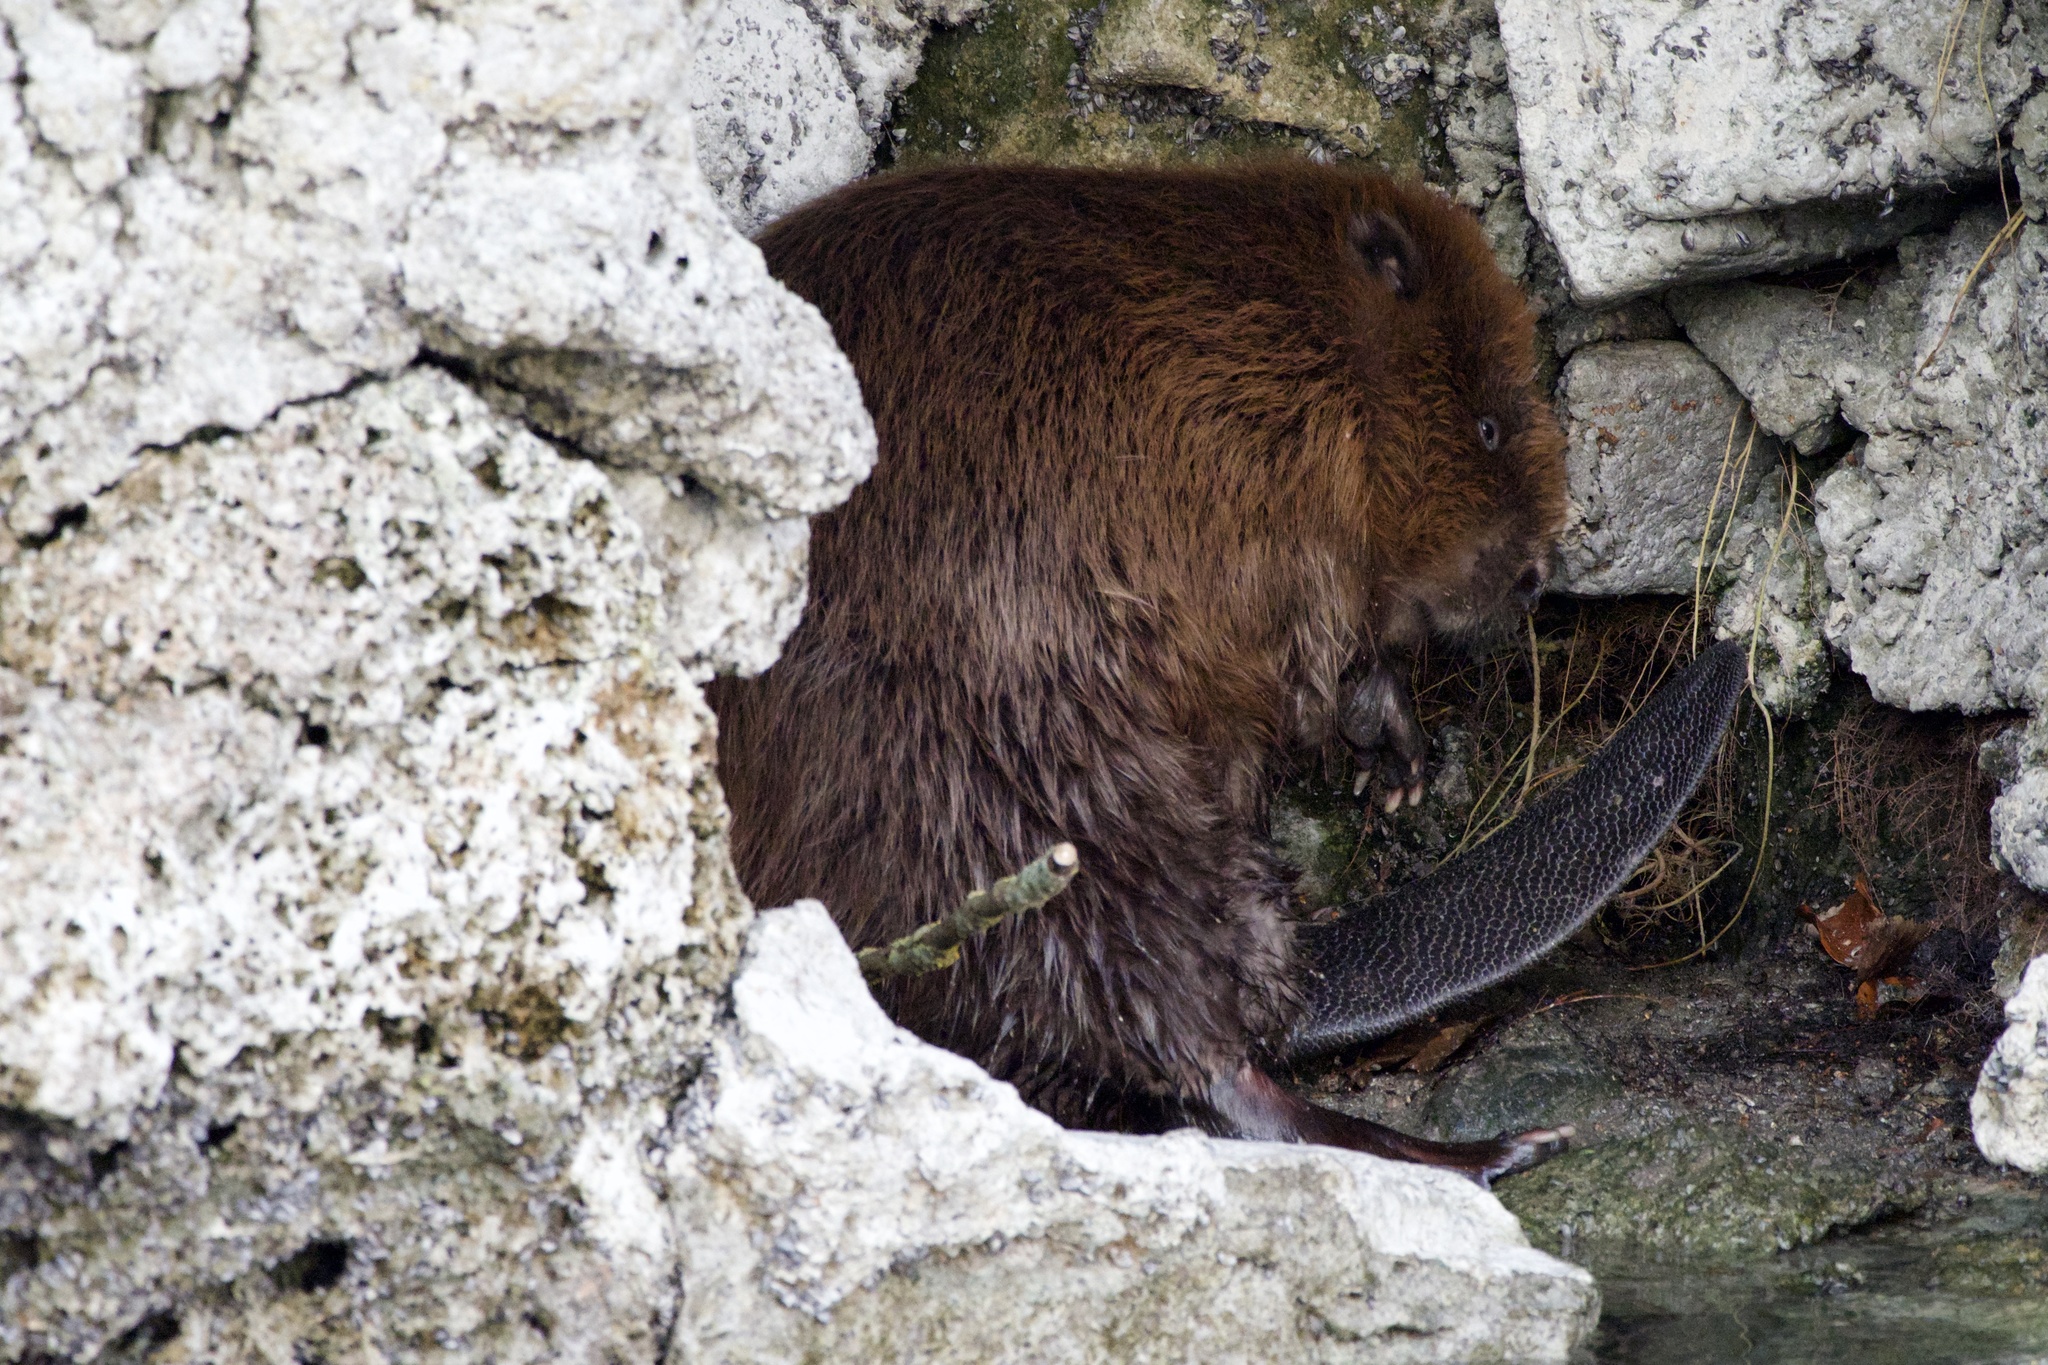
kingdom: Animalia
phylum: Chordata
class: Mammalia
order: Rodentia
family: Castoridae
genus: Castor
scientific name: Castor fiber
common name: Eurasian beaver
